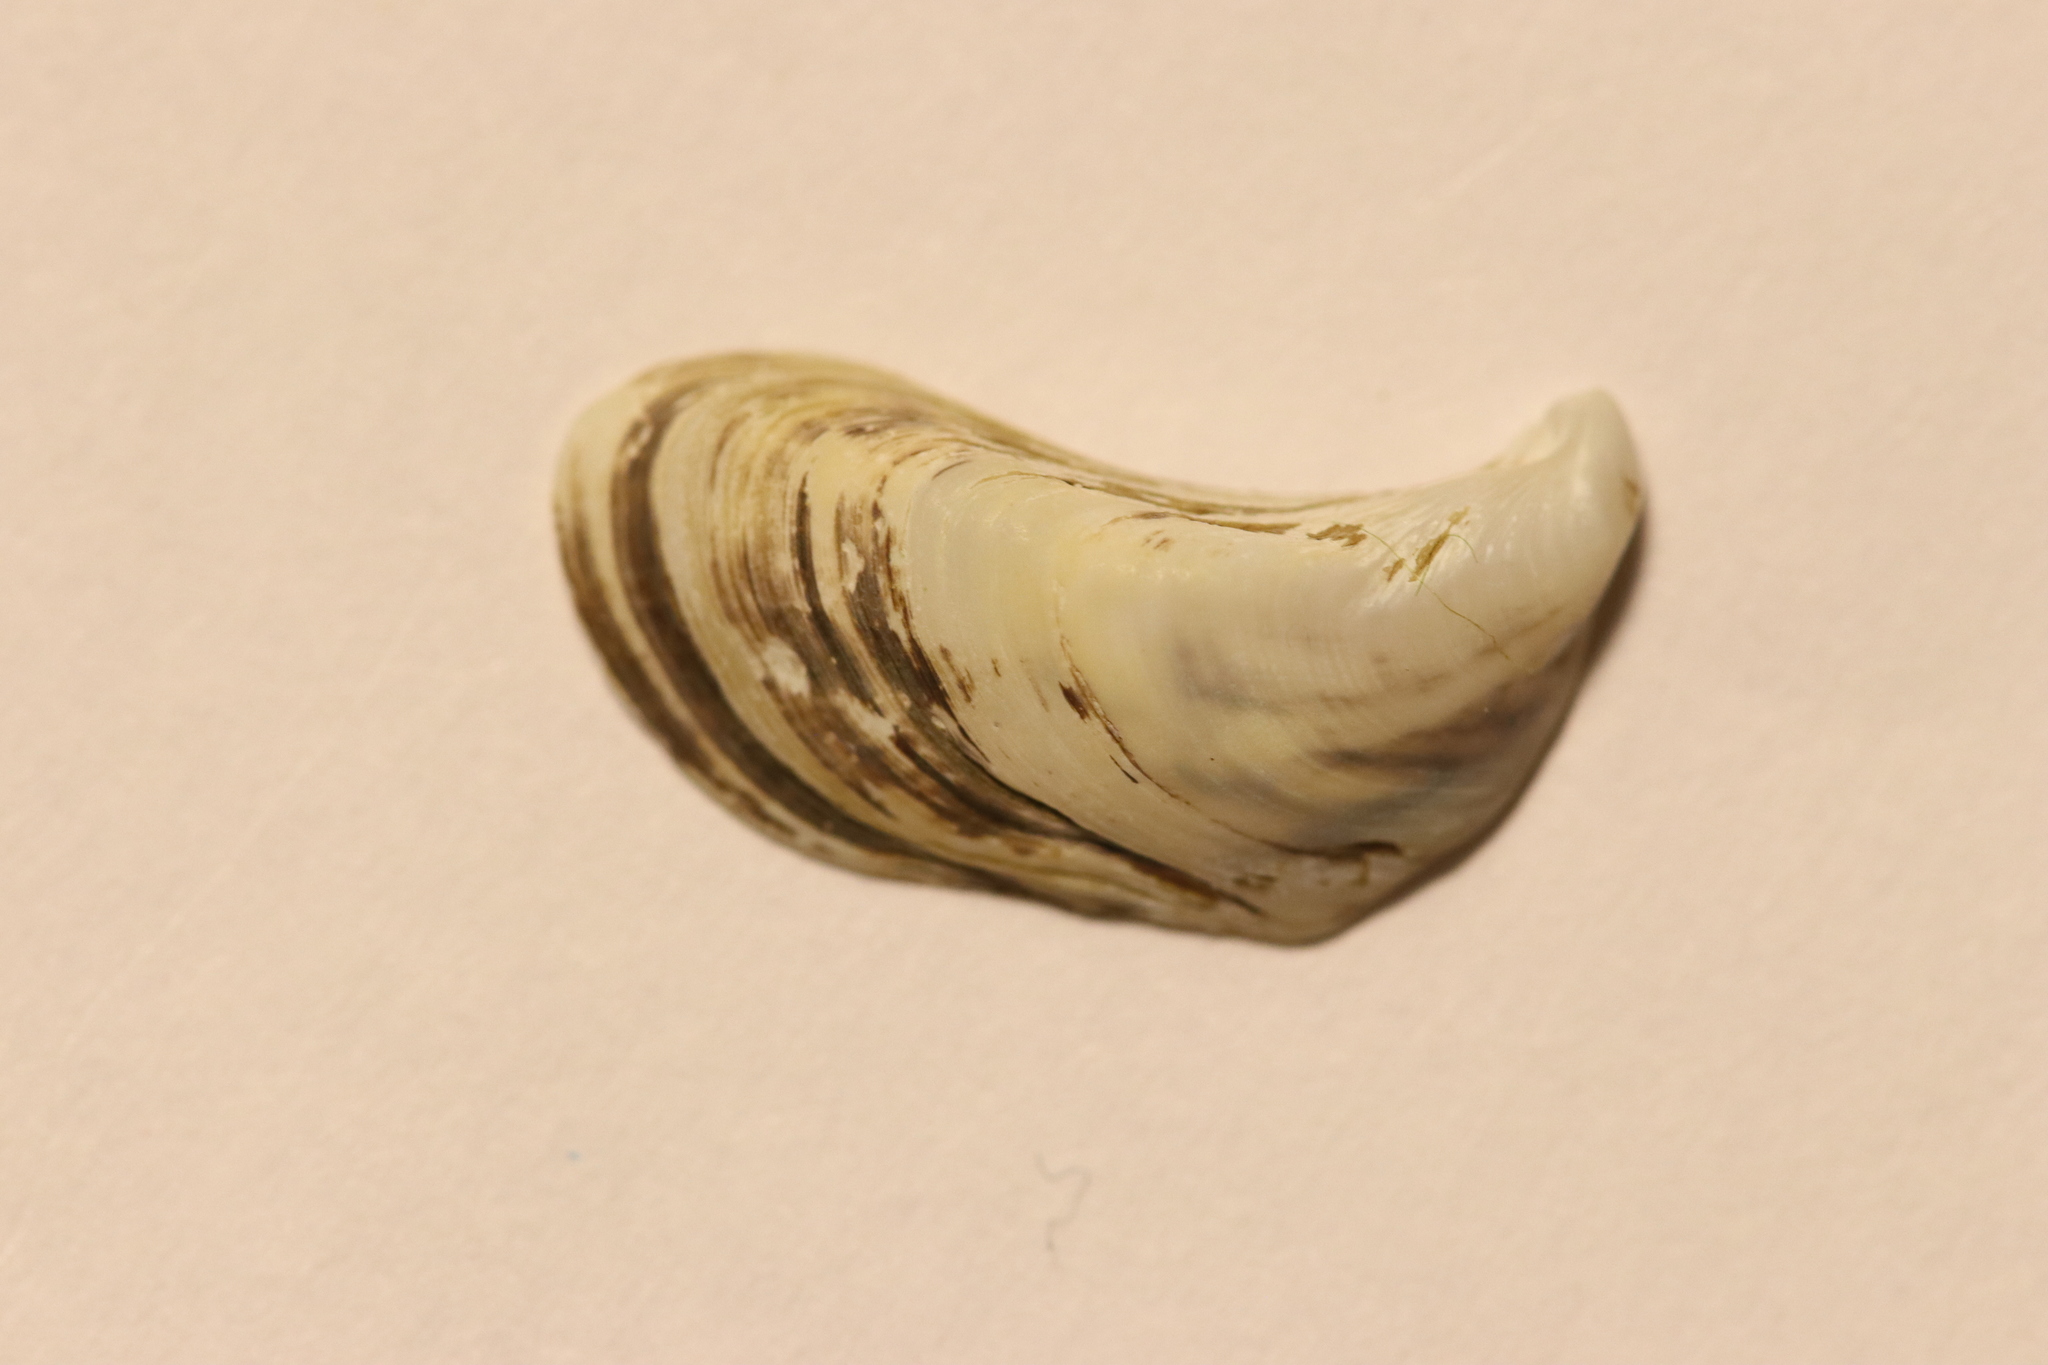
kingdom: Animalia
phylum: Mollusca
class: Bivalvia
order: Myida
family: Dreissenidae
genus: Dreissena
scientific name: Dreissena bugensis
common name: Quagga mussel
